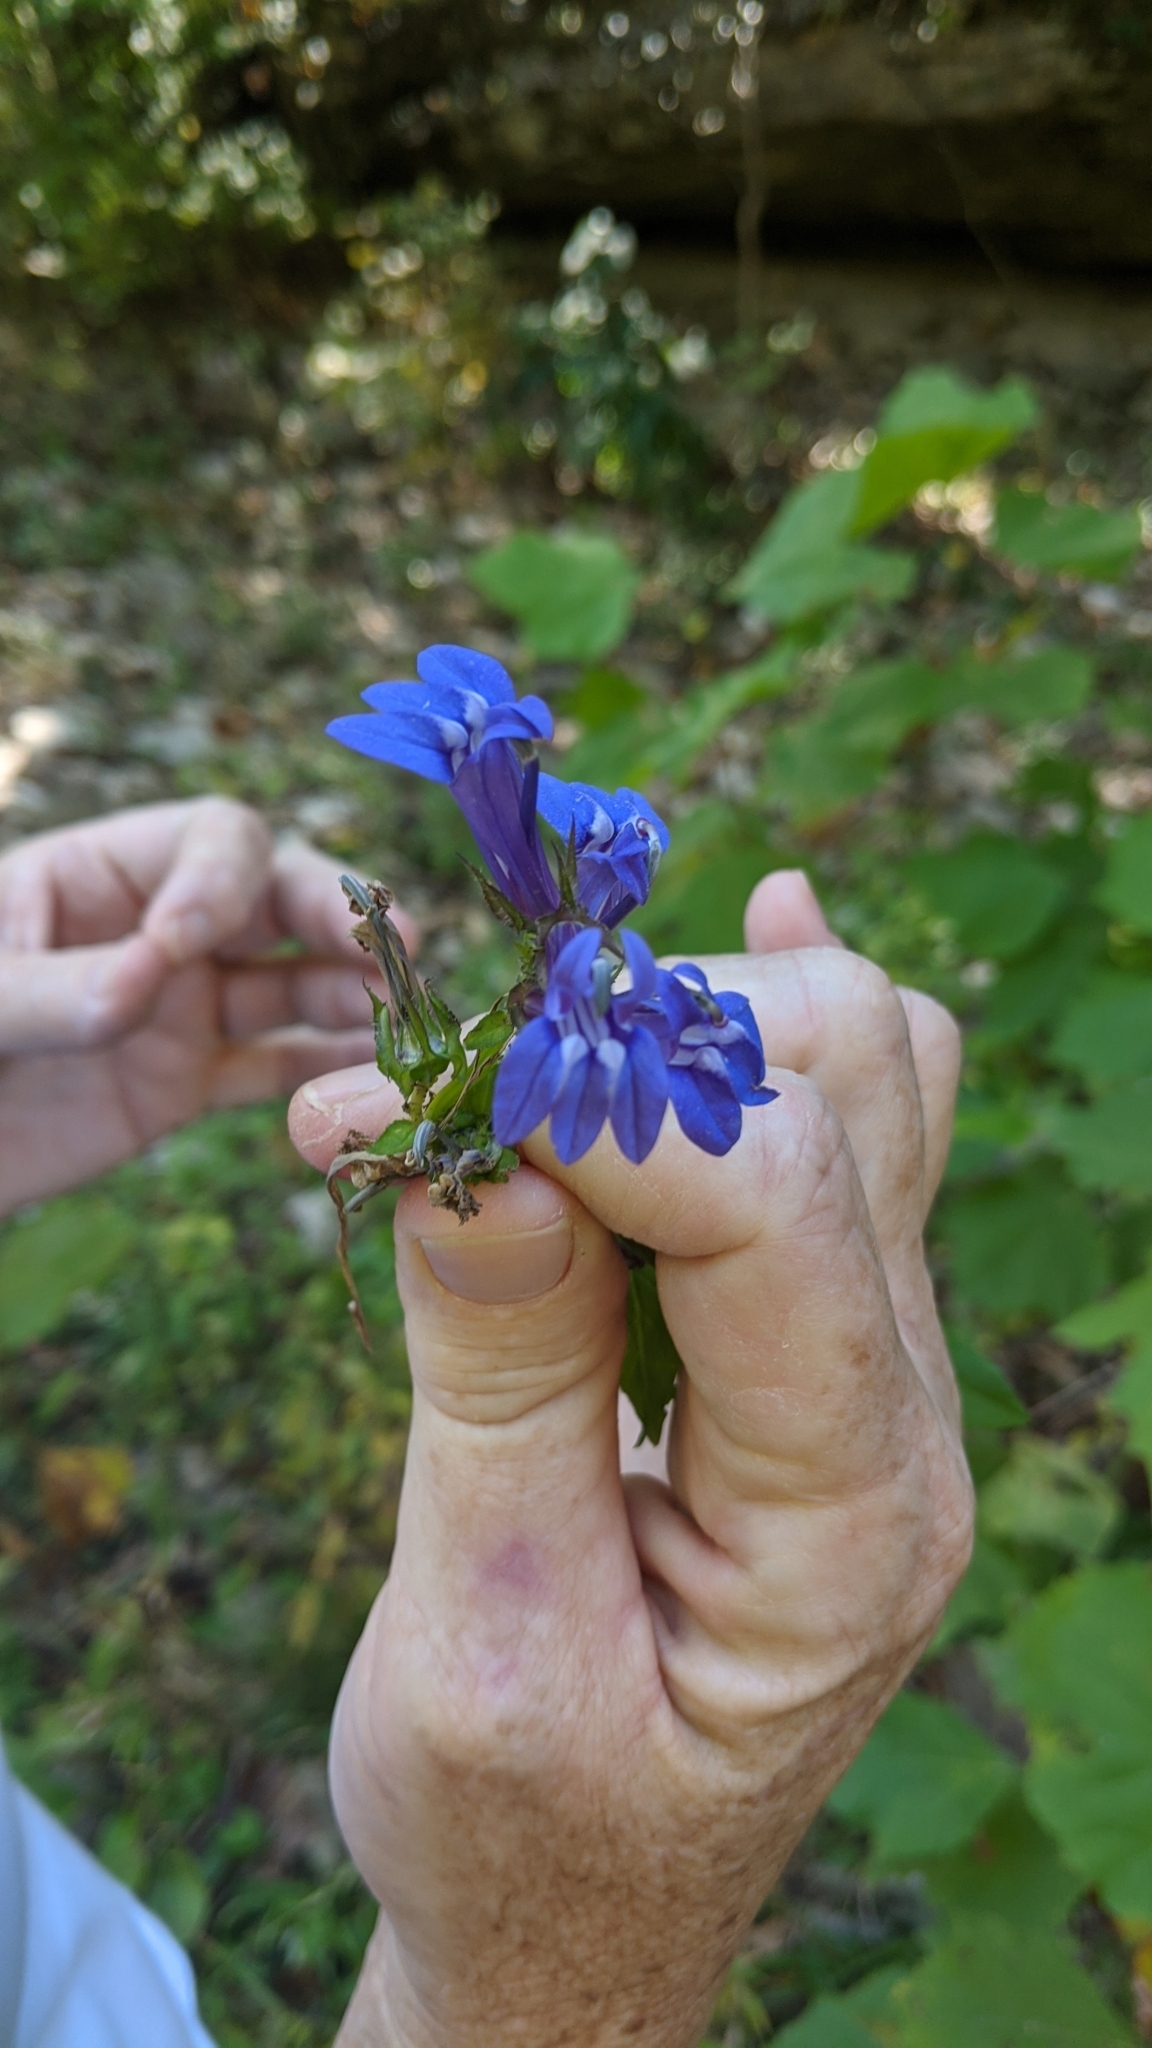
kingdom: Plantae
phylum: Tracheophyta
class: Magnoliopsida
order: Asterales
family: Campanulaceae
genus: Lobelia
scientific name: Lobelia siphilitica
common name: Great lobelia
